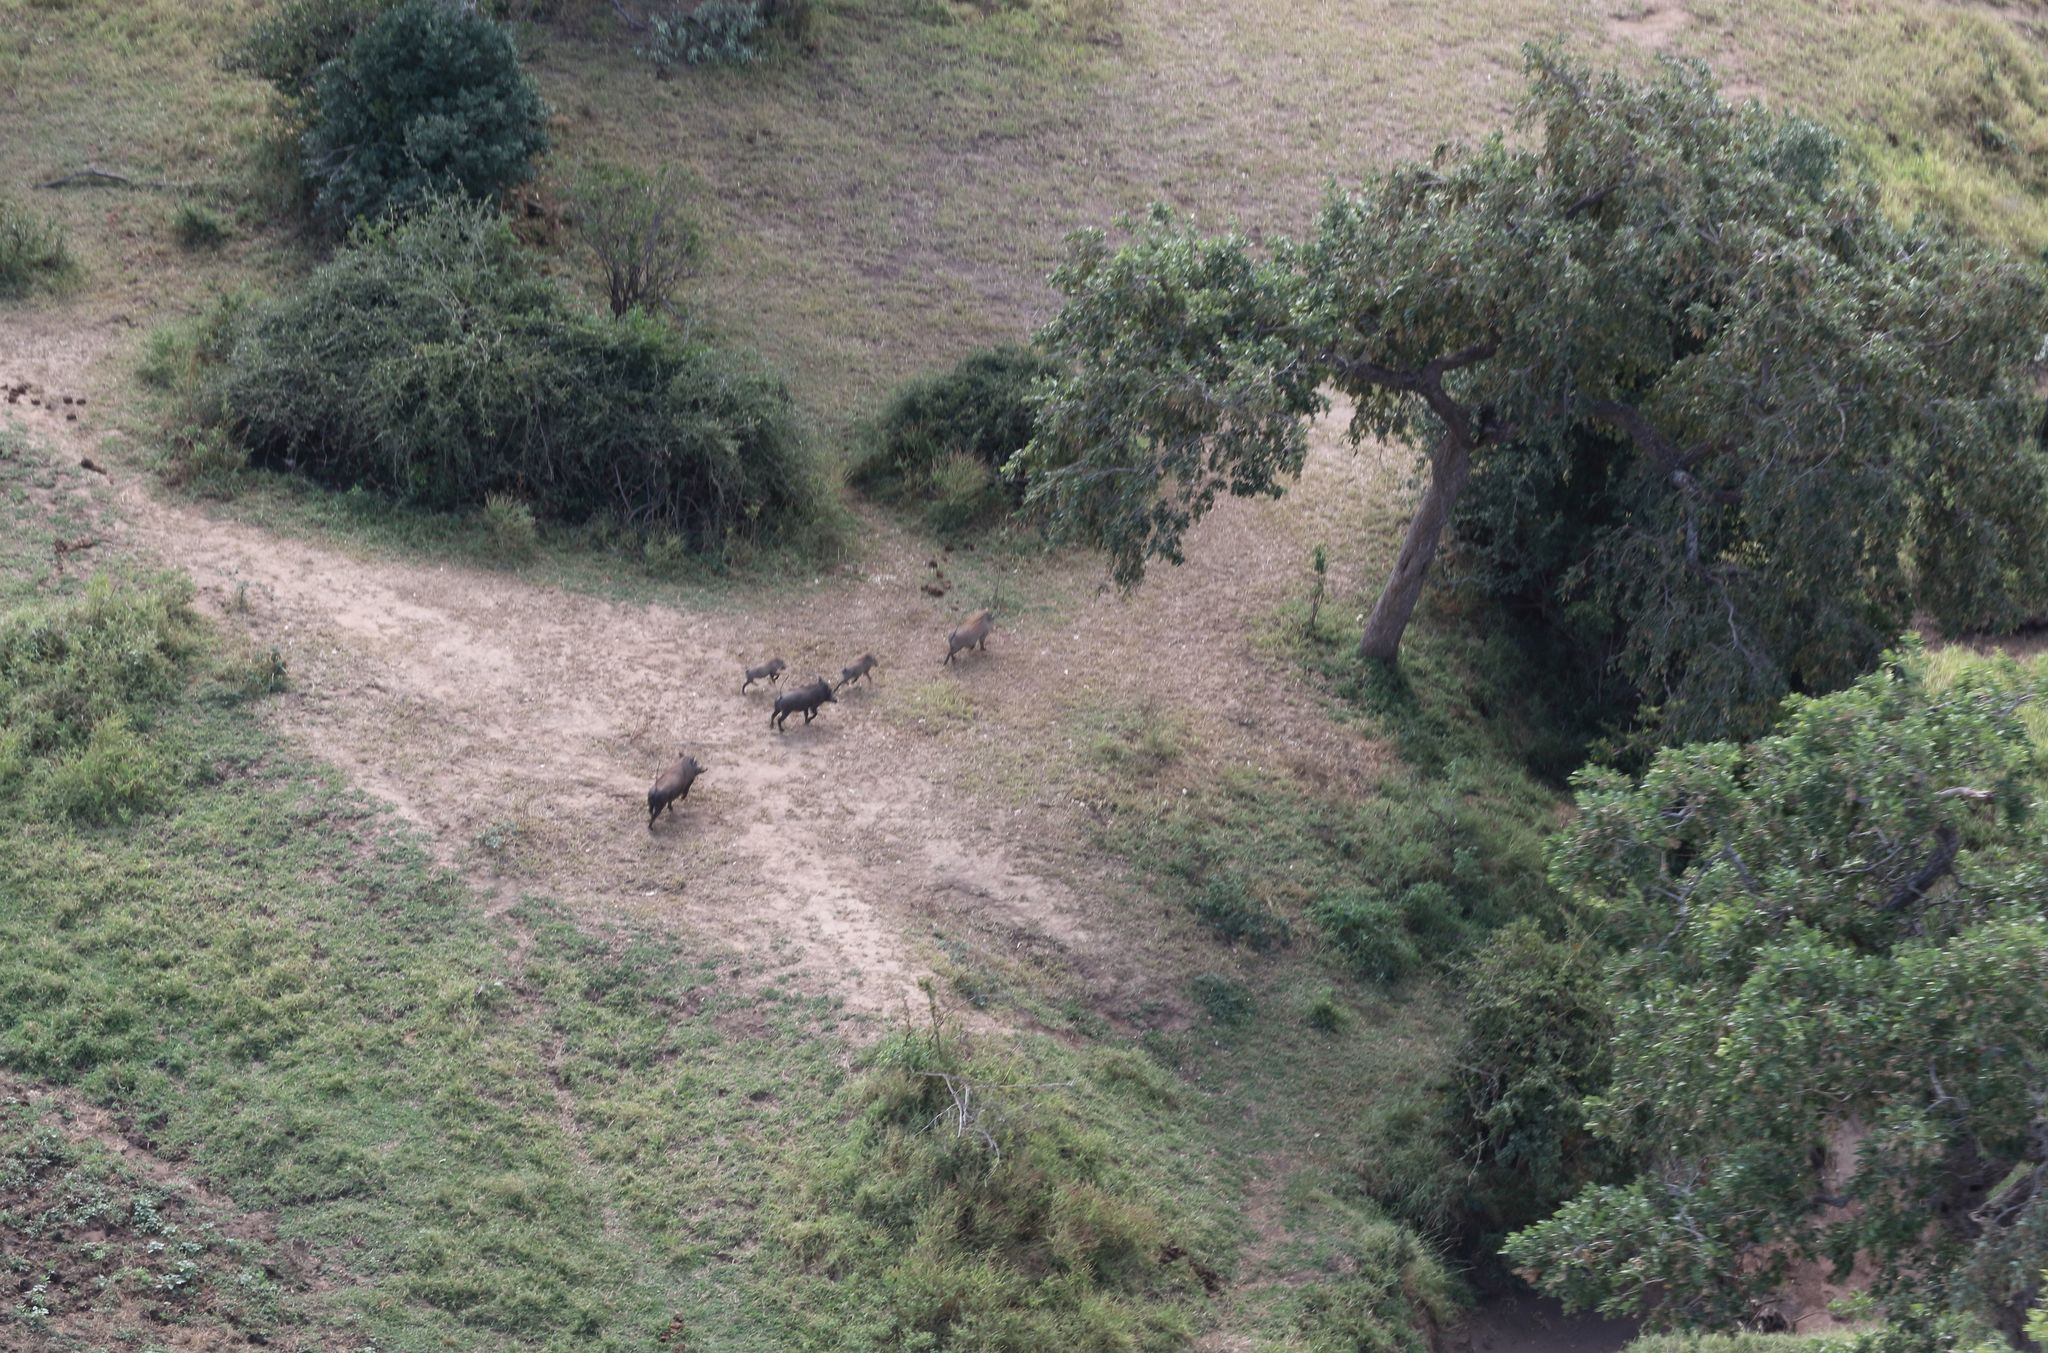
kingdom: Animalia
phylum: Chordata
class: Mammalia
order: Artiodactyla
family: Suidae
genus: Phacochoerus
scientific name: Phacochoerus africanus
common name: Common warthog
